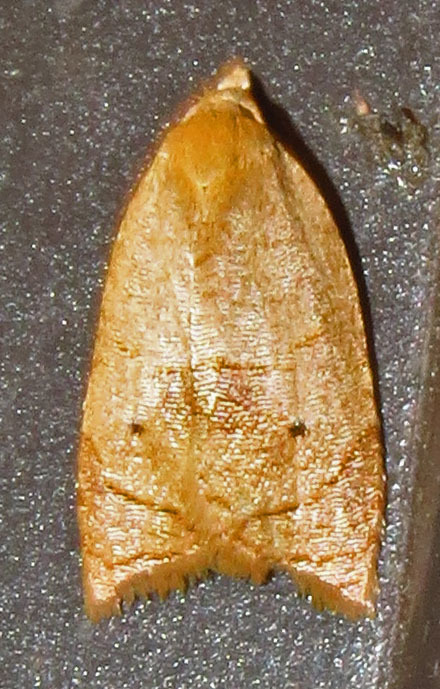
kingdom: Animalia
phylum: Arthropoda
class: Insecta
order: Lepidoptera
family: Tortricidae
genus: Coelostathma
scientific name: Coelostathma discopunctana
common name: Batman moth
